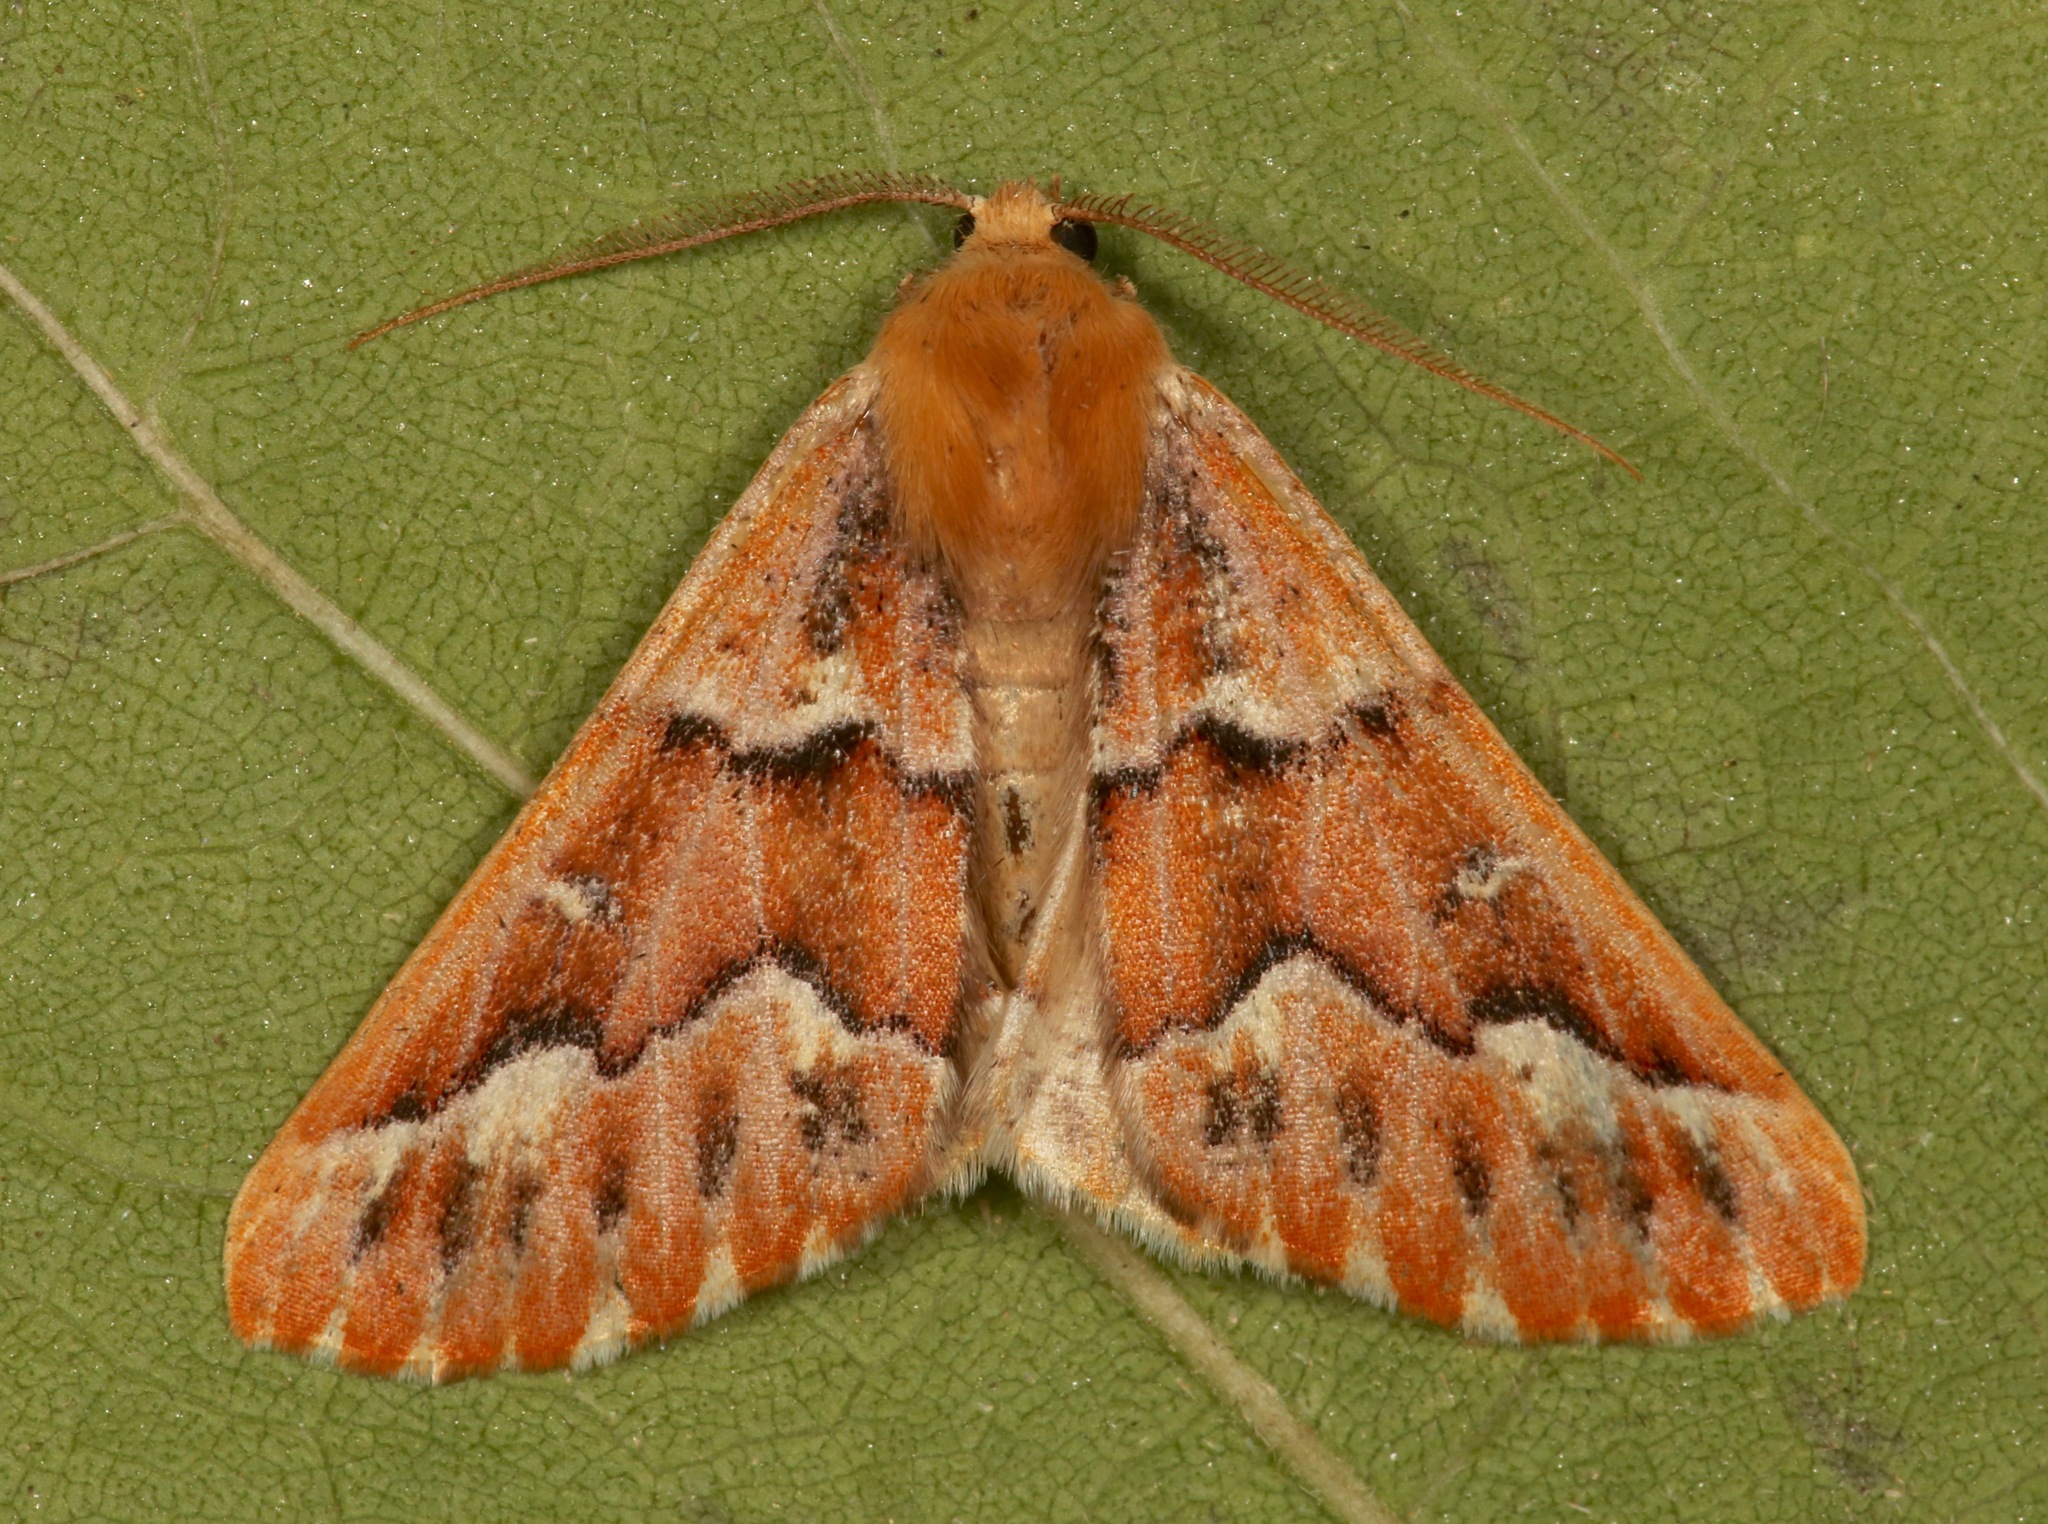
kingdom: Animalia
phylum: Arthropoda
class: Insecta
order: Lepidoptera
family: Geometridae
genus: Caripeta
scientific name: Caripeta aequaliaria
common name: Red girdle moth
